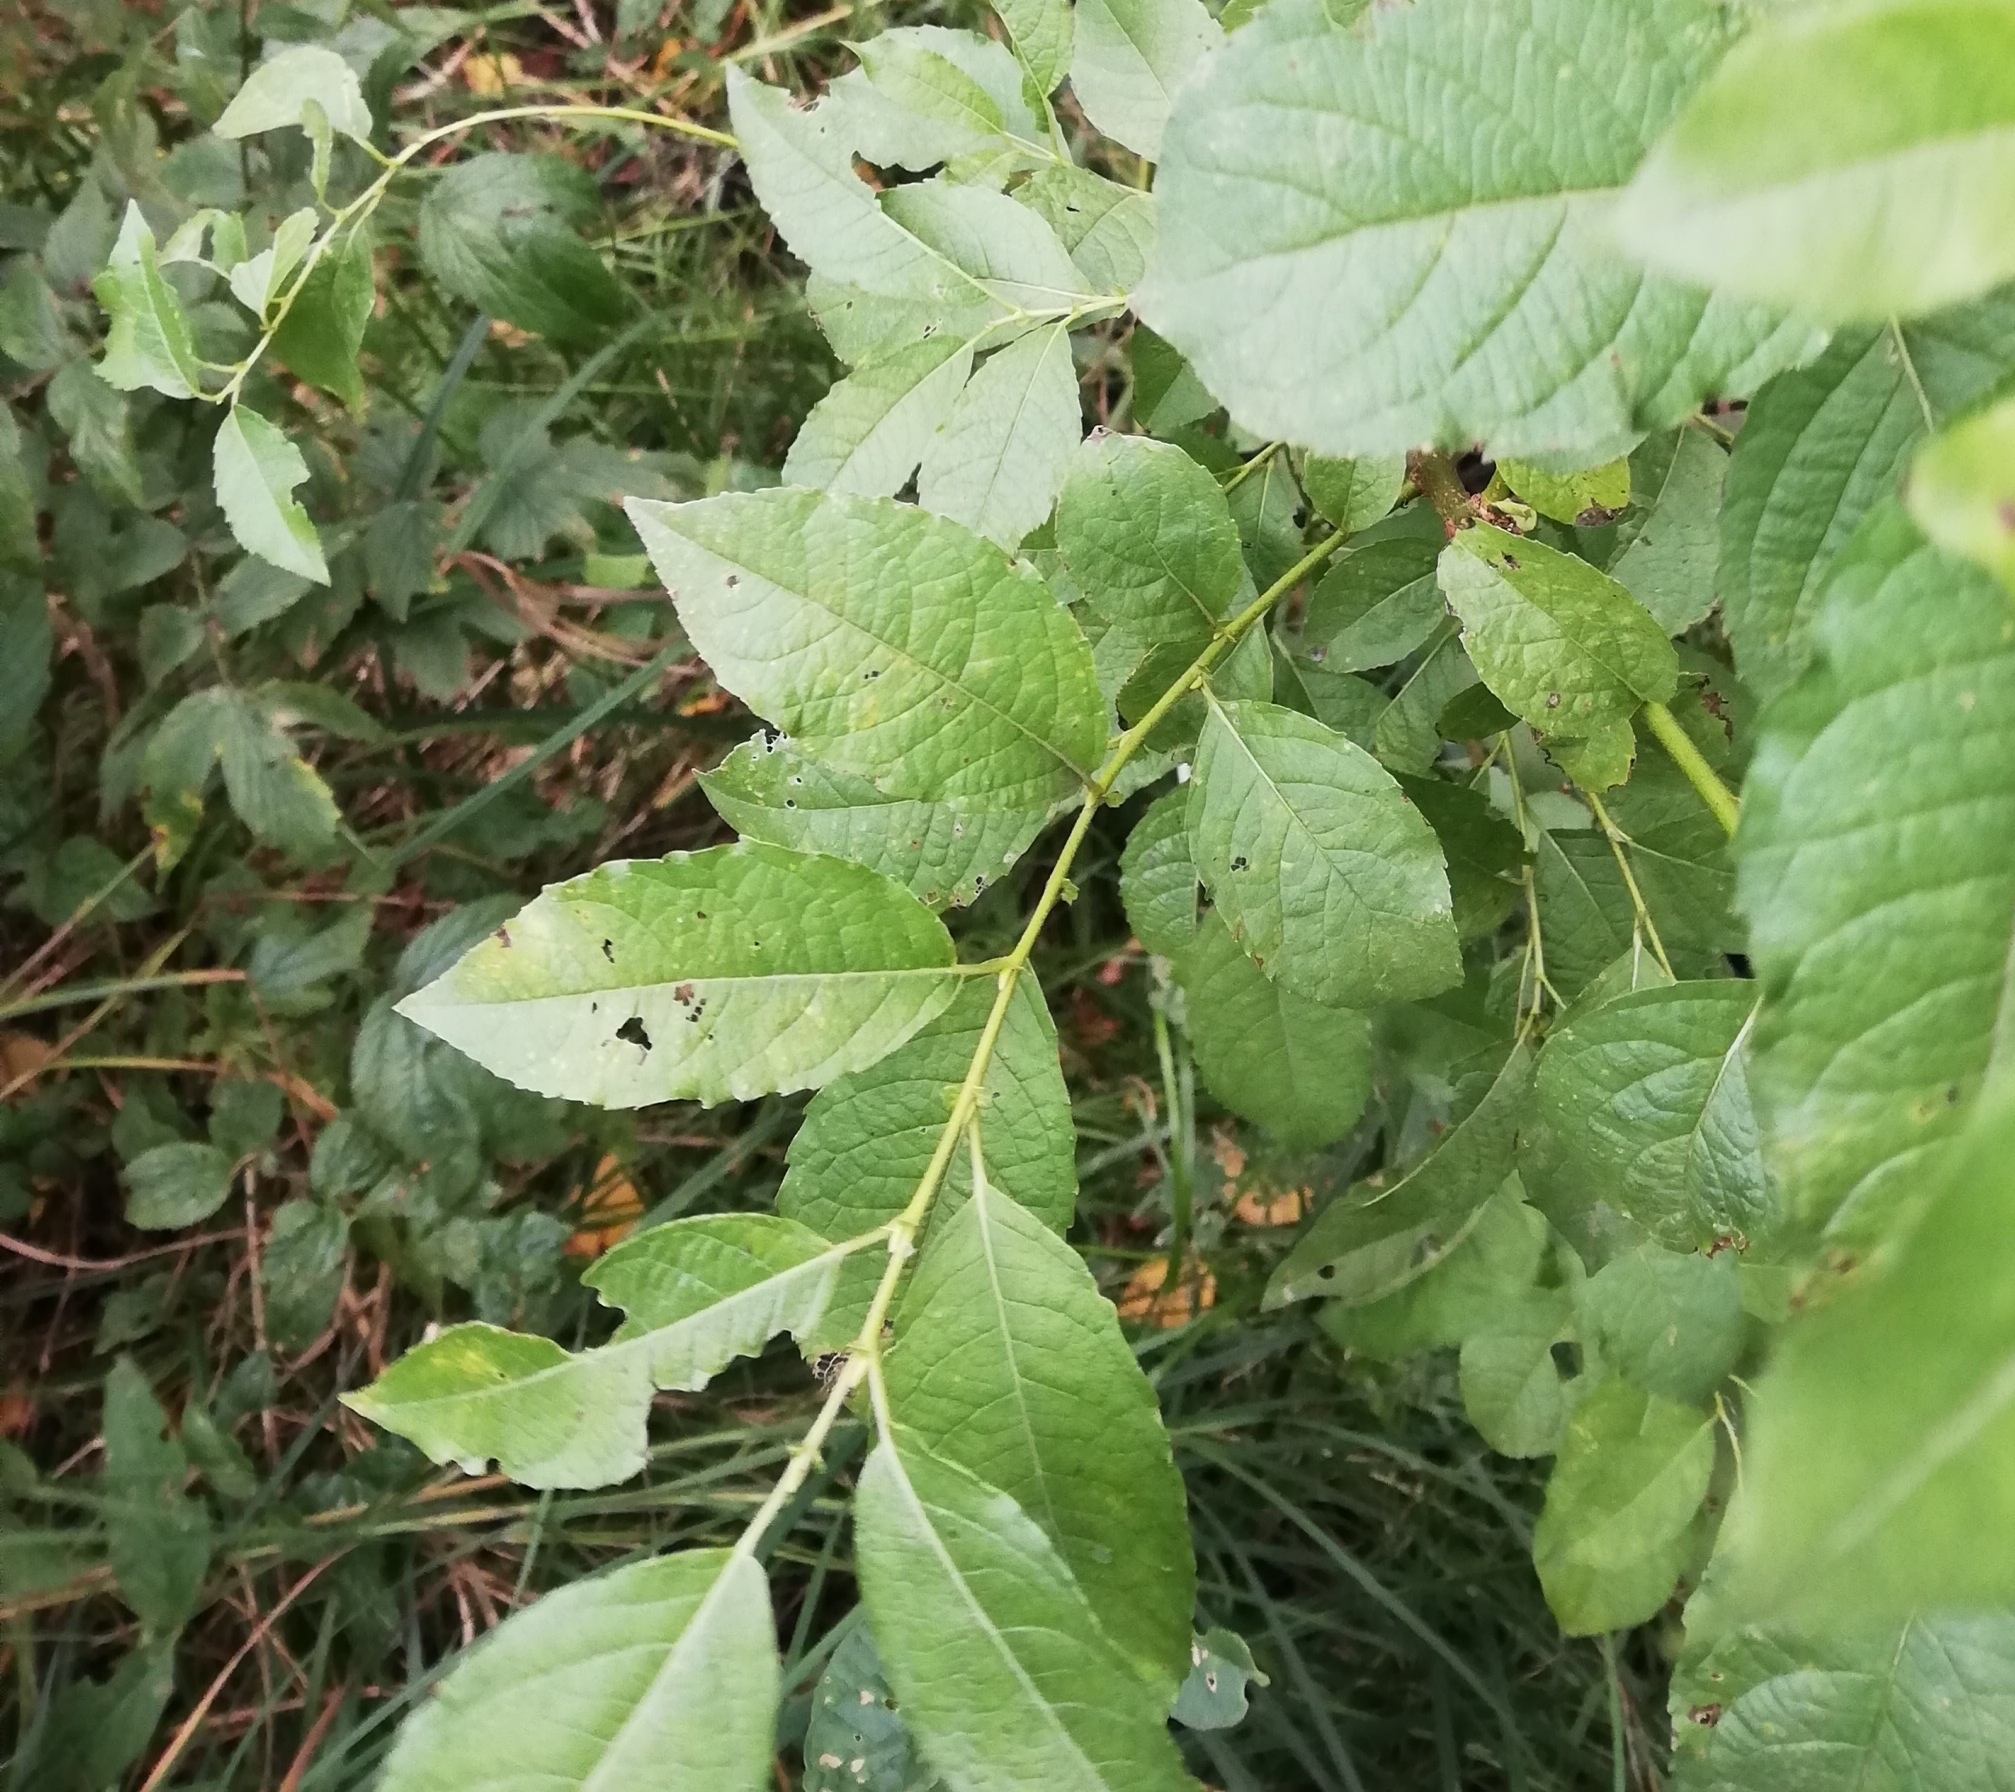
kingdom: Plantae
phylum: Tracheophyta
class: Magnoliopsida
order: Malpighiales
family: Salicaceae
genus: Salix
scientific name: Salix myrsinifolia
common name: Dark-leaved willow
